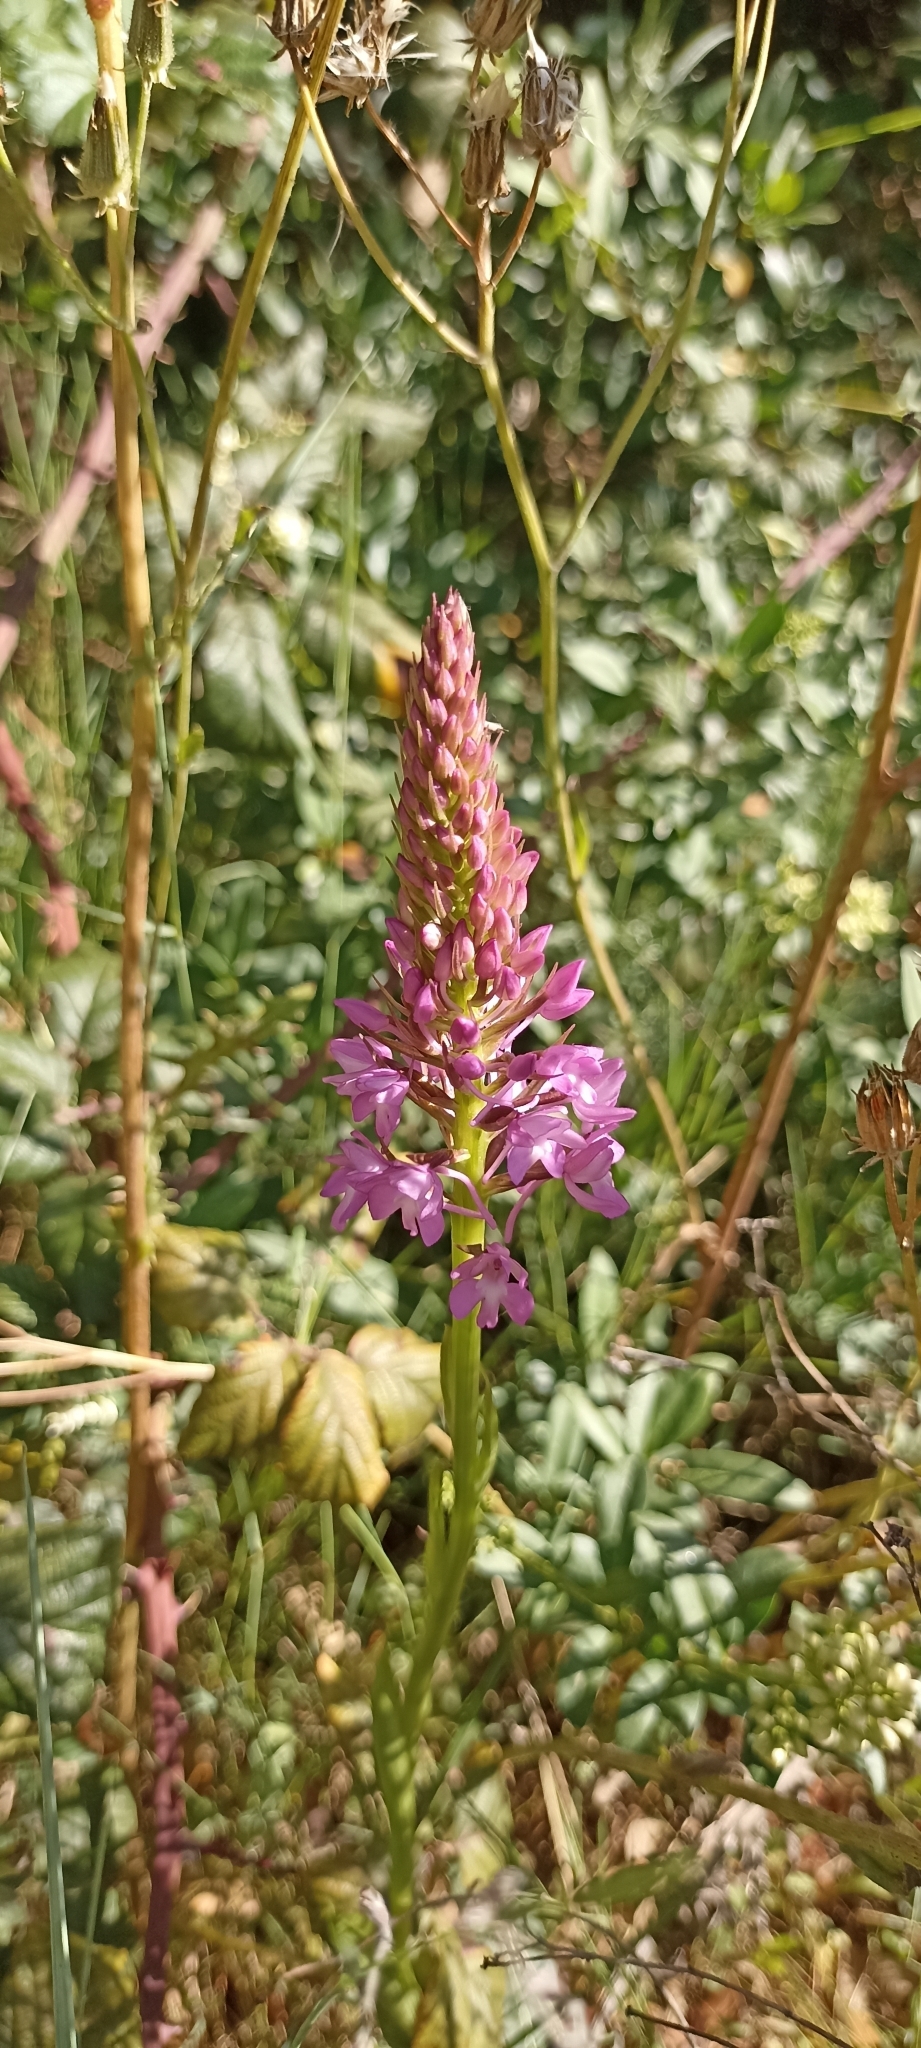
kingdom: Plantae
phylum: Tracheophyta
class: Liliopsida
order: Asparagales
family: Orchidaceae
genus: Anacamptis
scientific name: Anacamptis pyramidalis
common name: Pyramidal orchid
